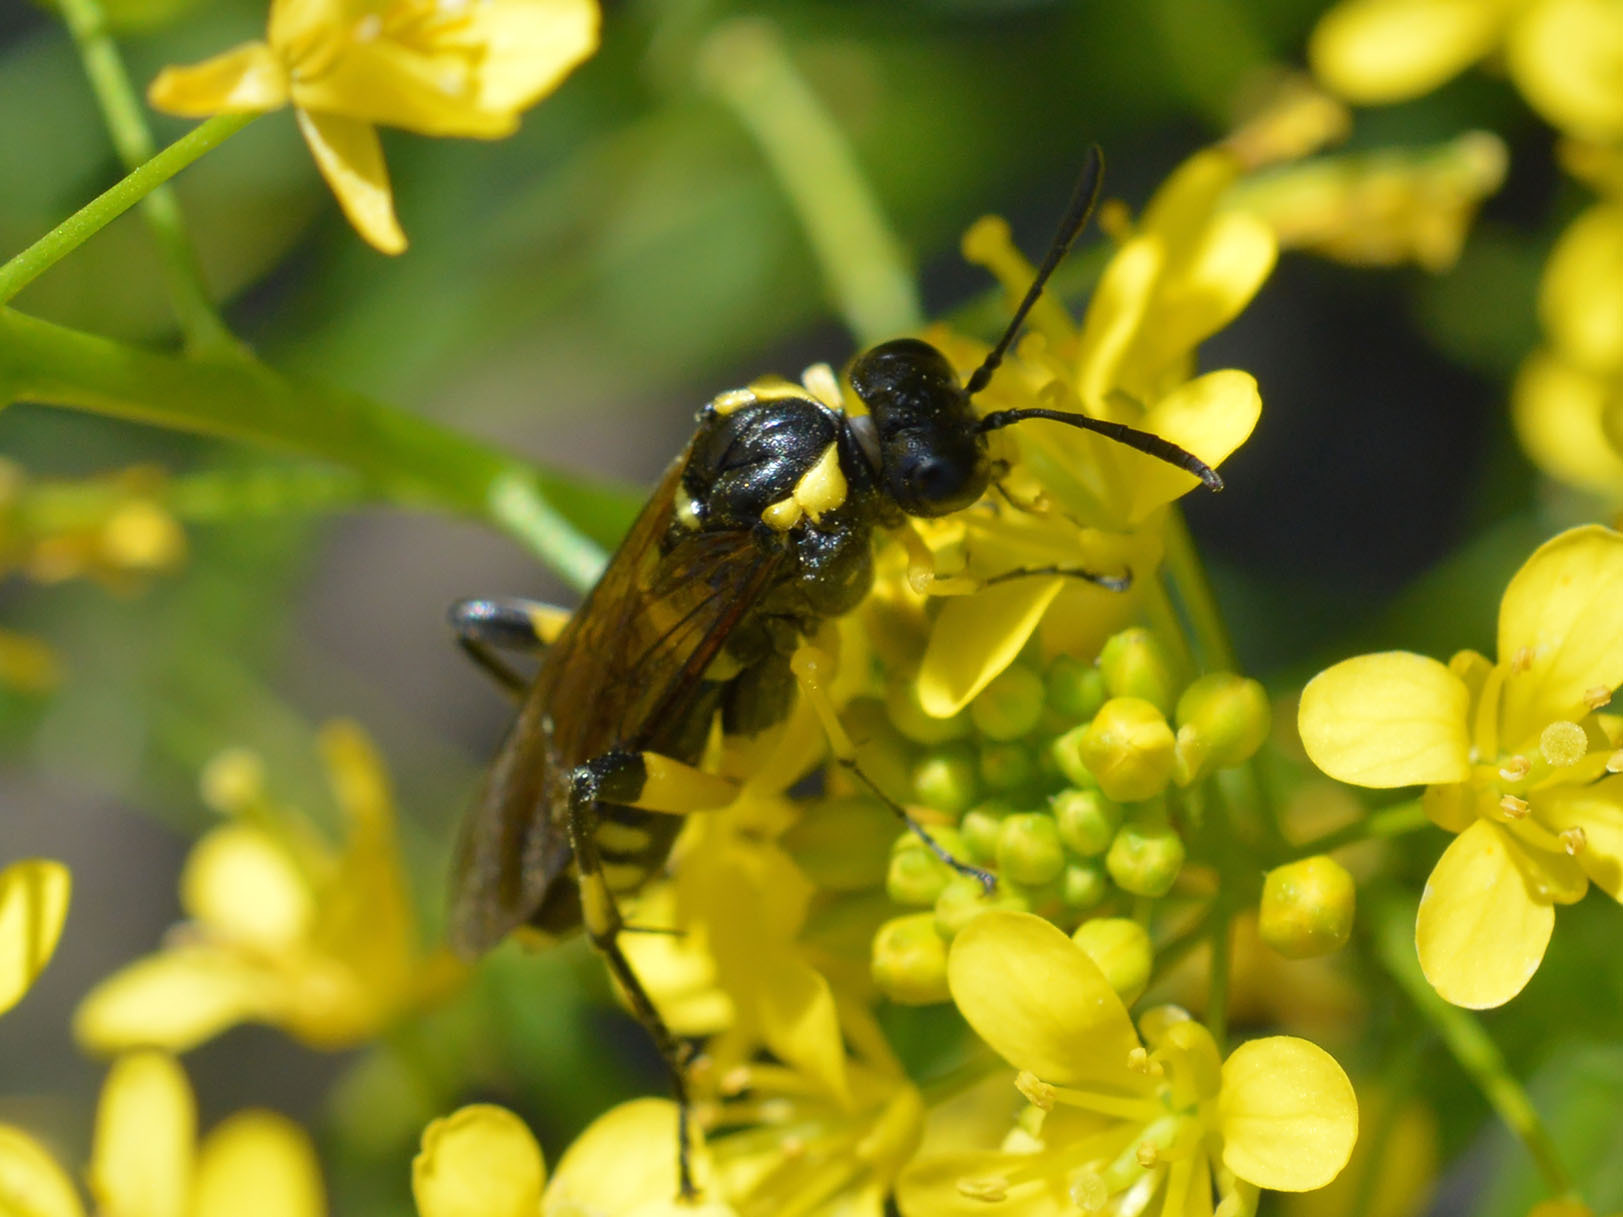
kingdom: Animalia
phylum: Arthropoda
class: Insecta
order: Hymenoptera
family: Tenthredinidae
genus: Macrophya
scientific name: Macrophya montana
